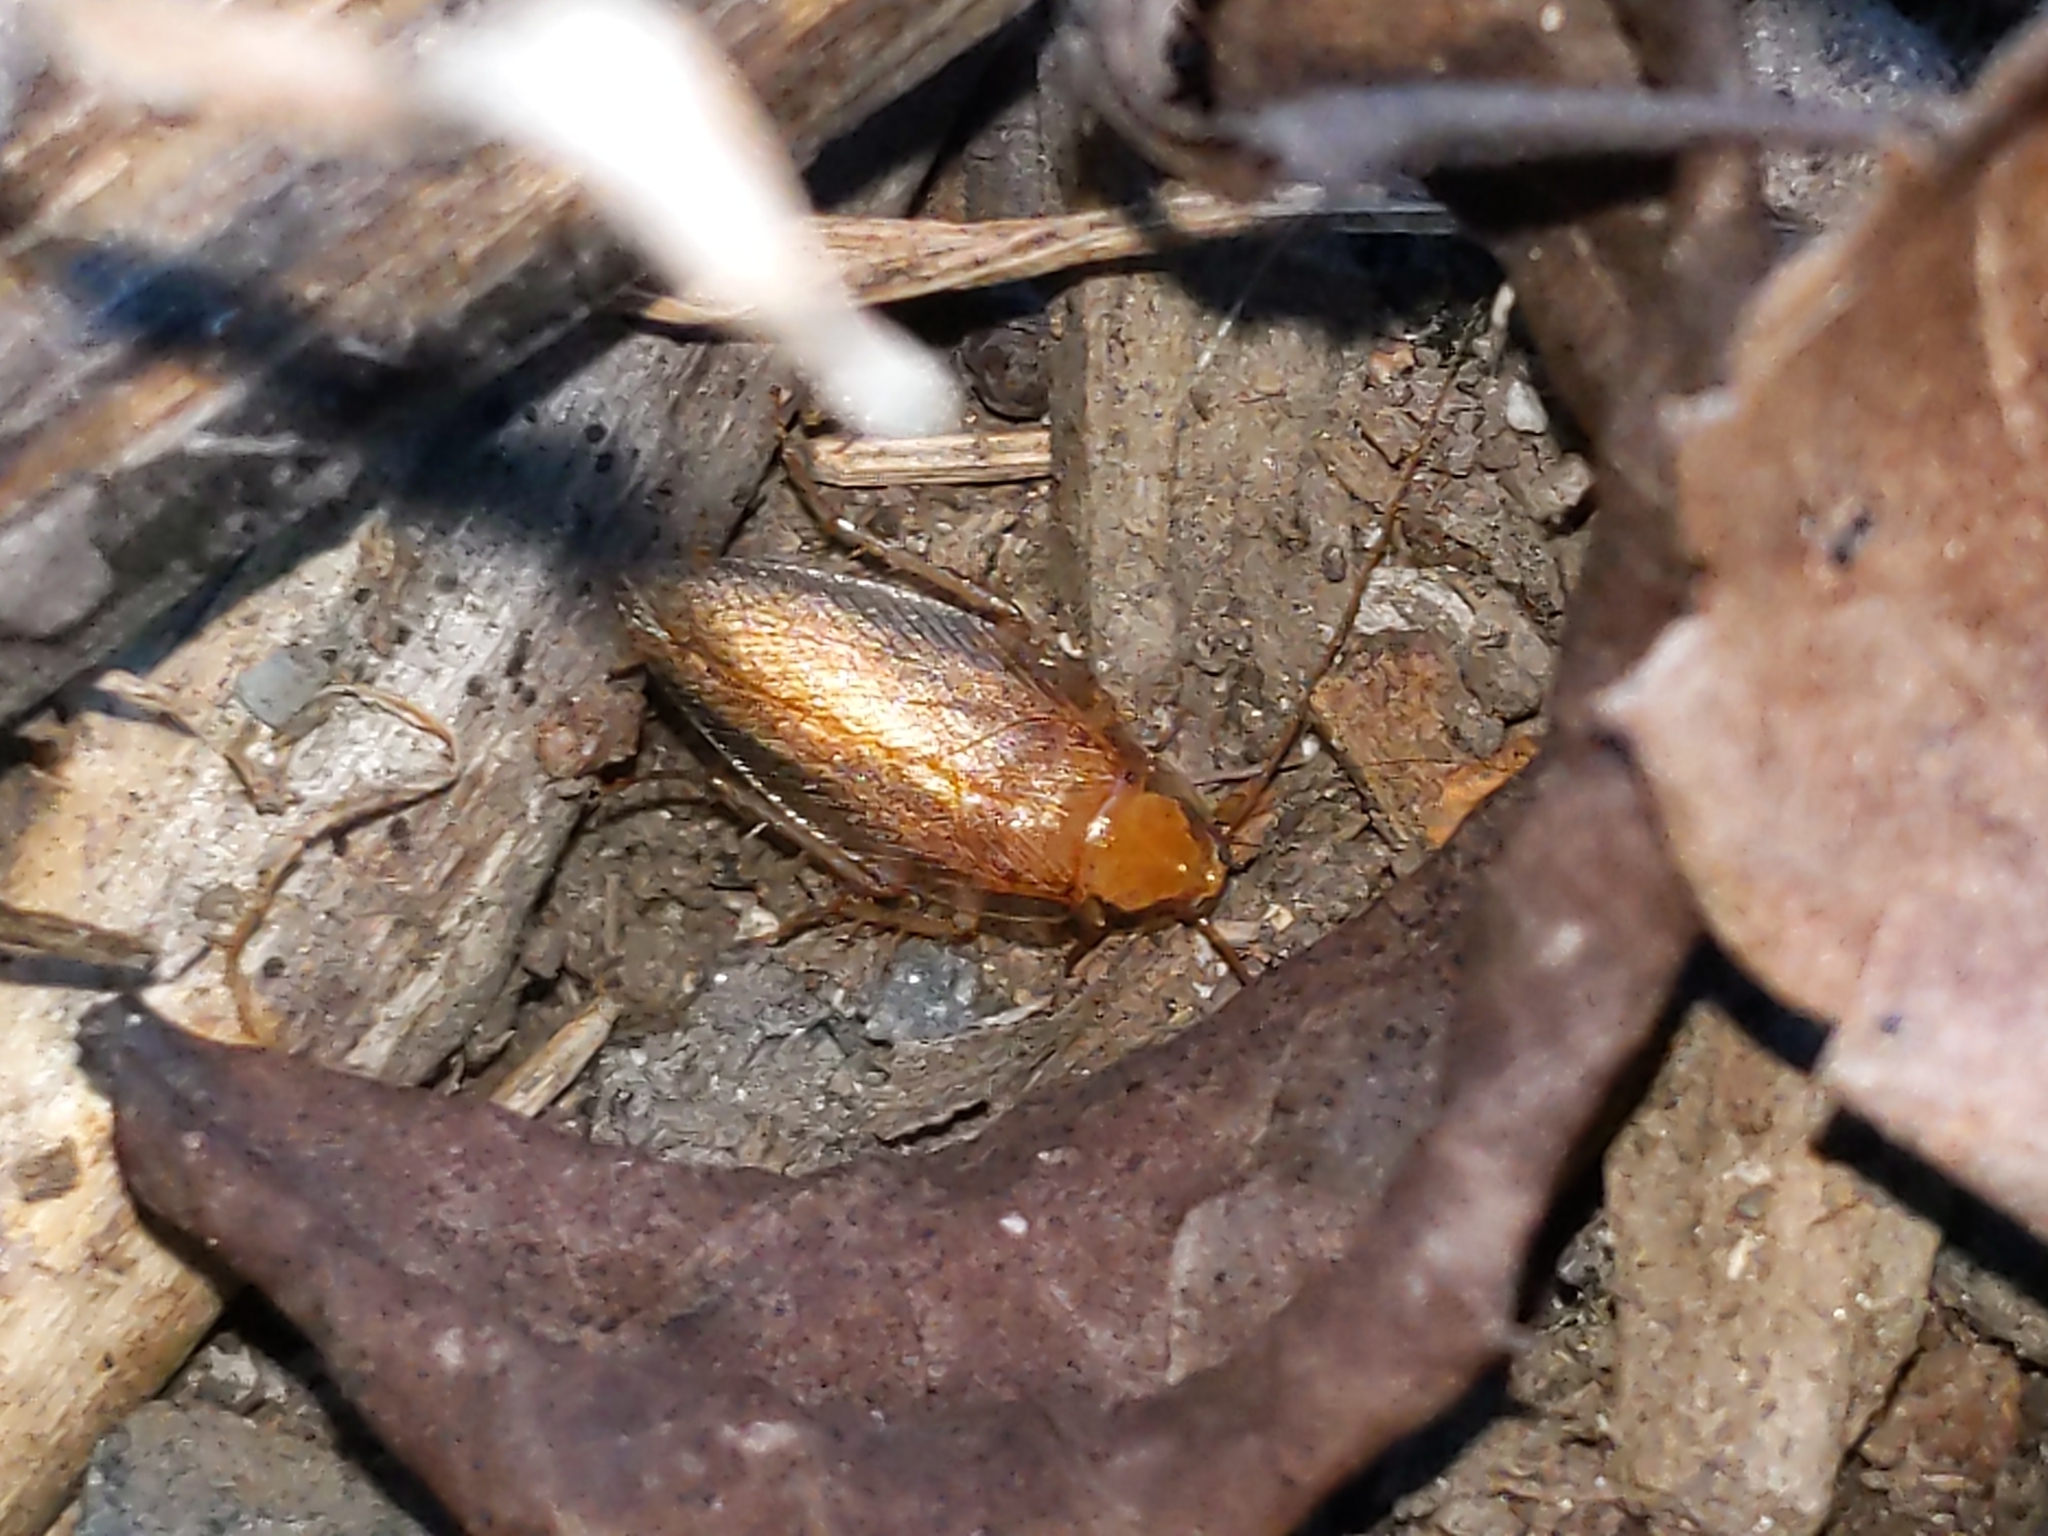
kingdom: Animalia
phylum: Arthropoda
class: Insecta
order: Blattodea
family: Ectobiidae
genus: Ectobius
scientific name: Ectobius pallidus
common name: Tawny cockroach
